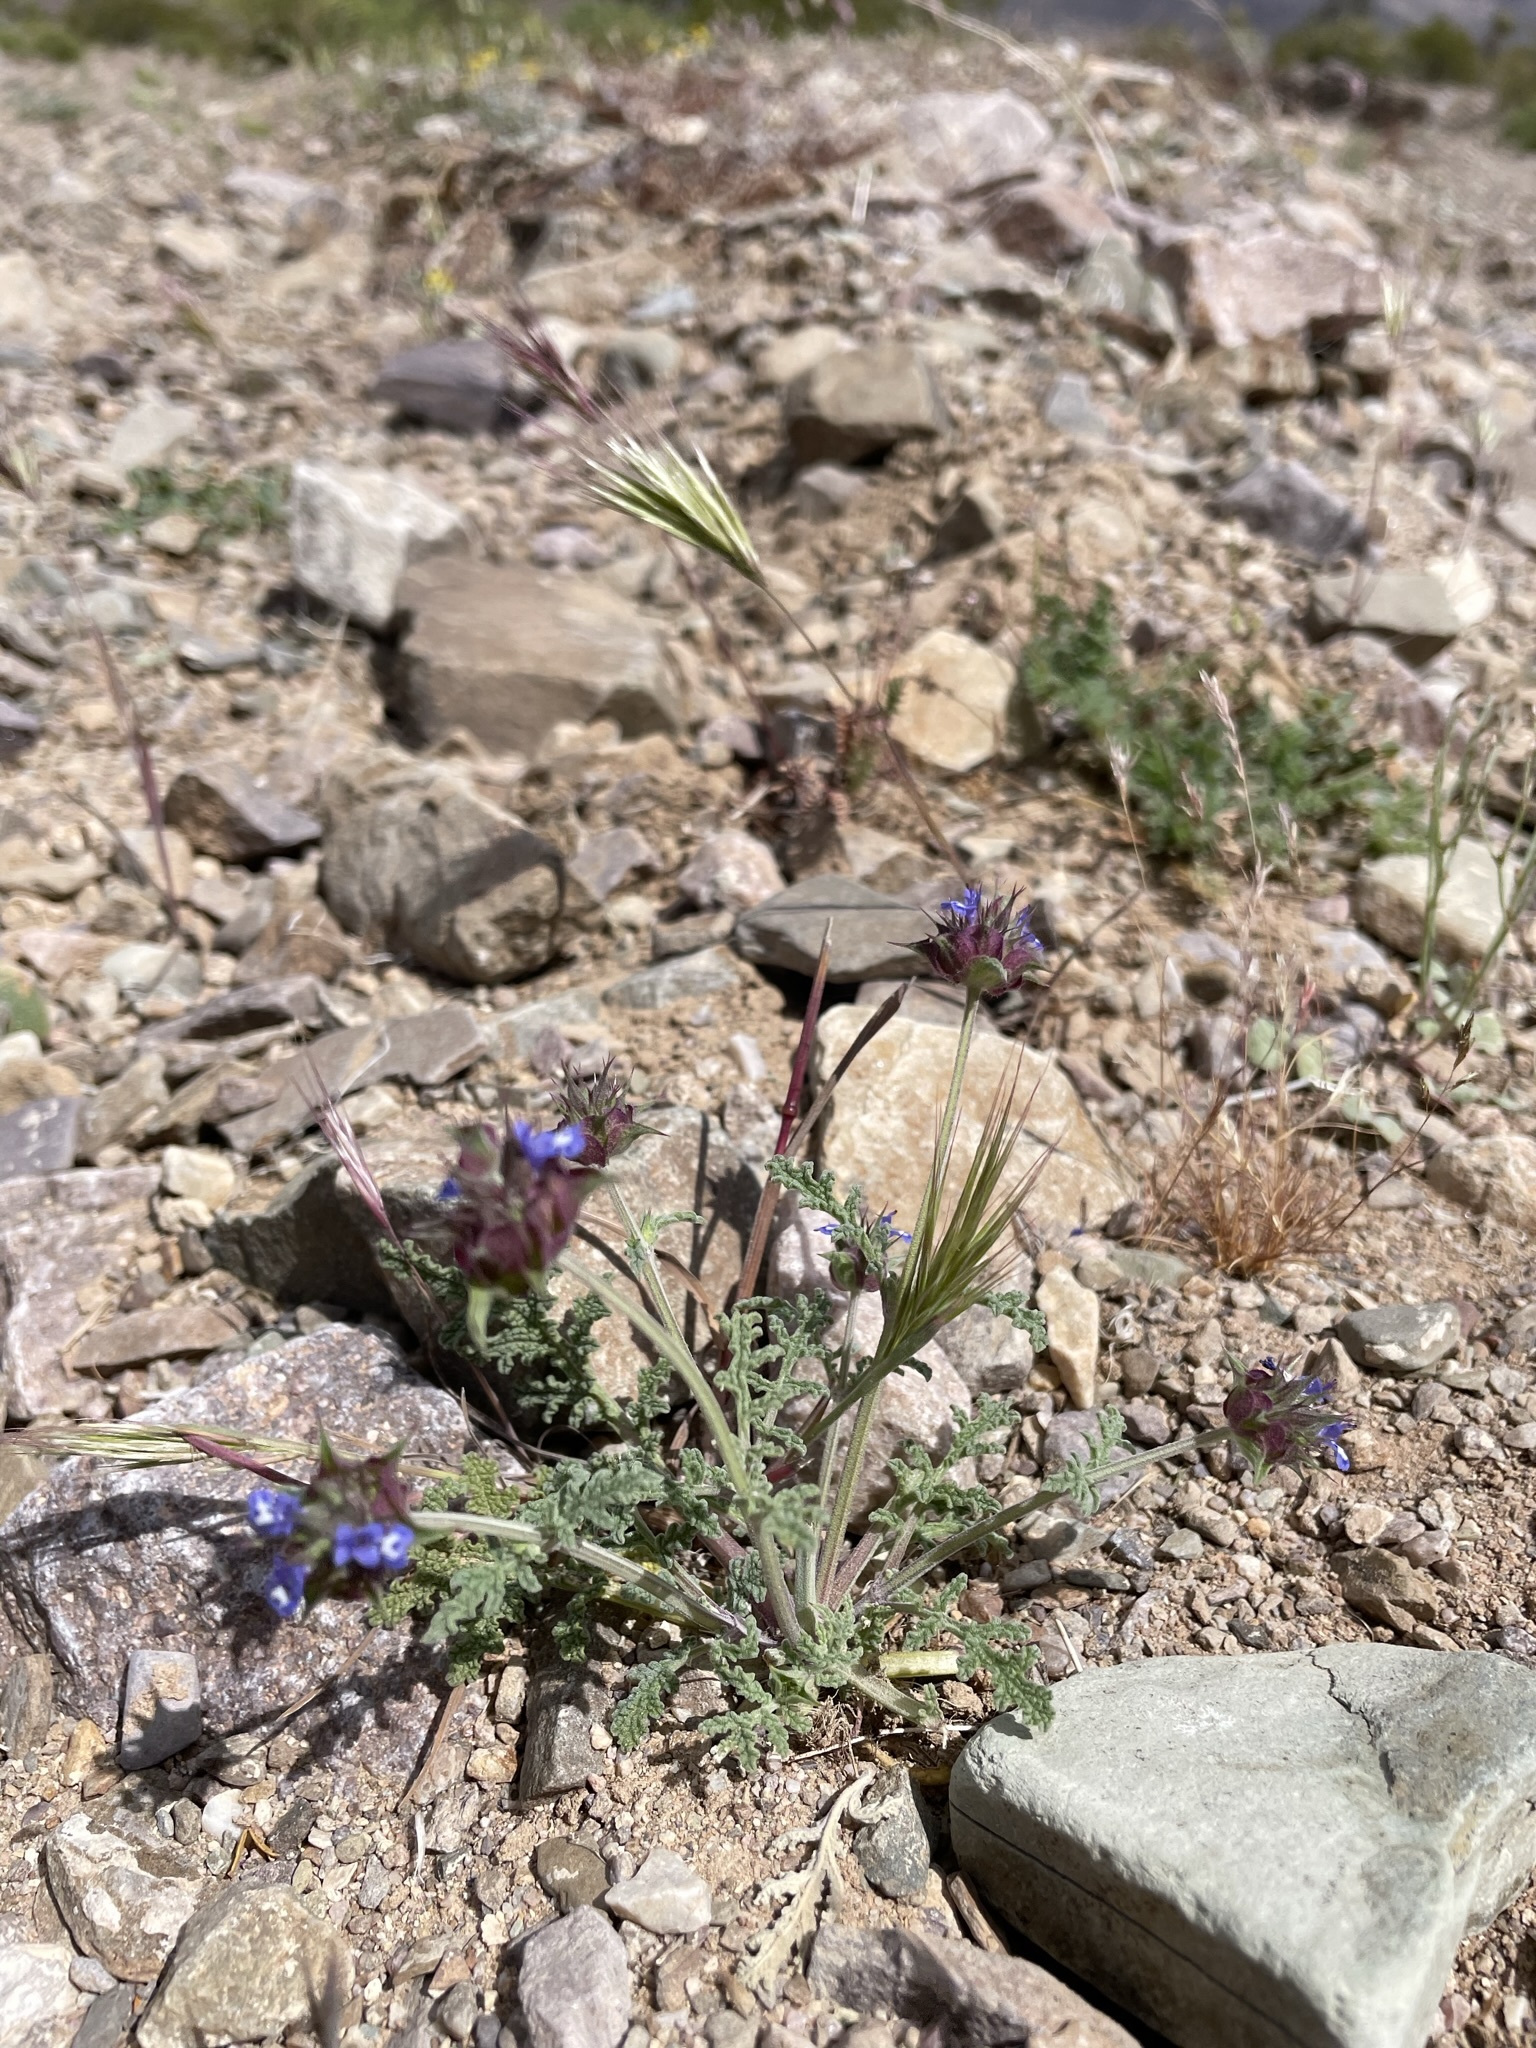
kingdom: Plantae
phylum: Tracheophyta
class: Magnoliopsida
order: Lamiales
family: Lamiaceae
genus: Salvia
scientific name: Salvia columbariae
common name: Chia
